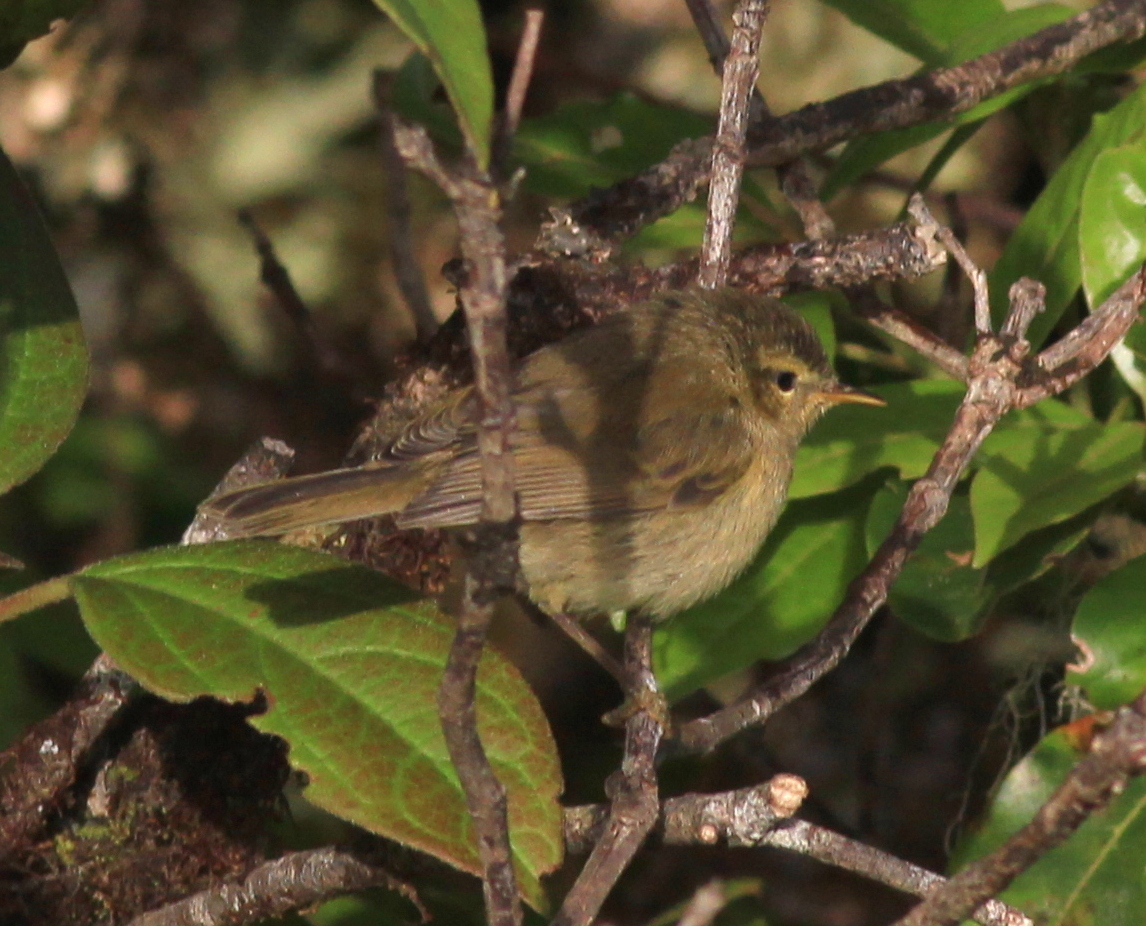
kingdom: Animalia
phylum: Chordata
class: Aves
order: Passeriformes
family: Phylloscopidae
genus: Phylloscopus
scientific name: Phylloscopus canariensis
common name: Canary islands chiffchaff
